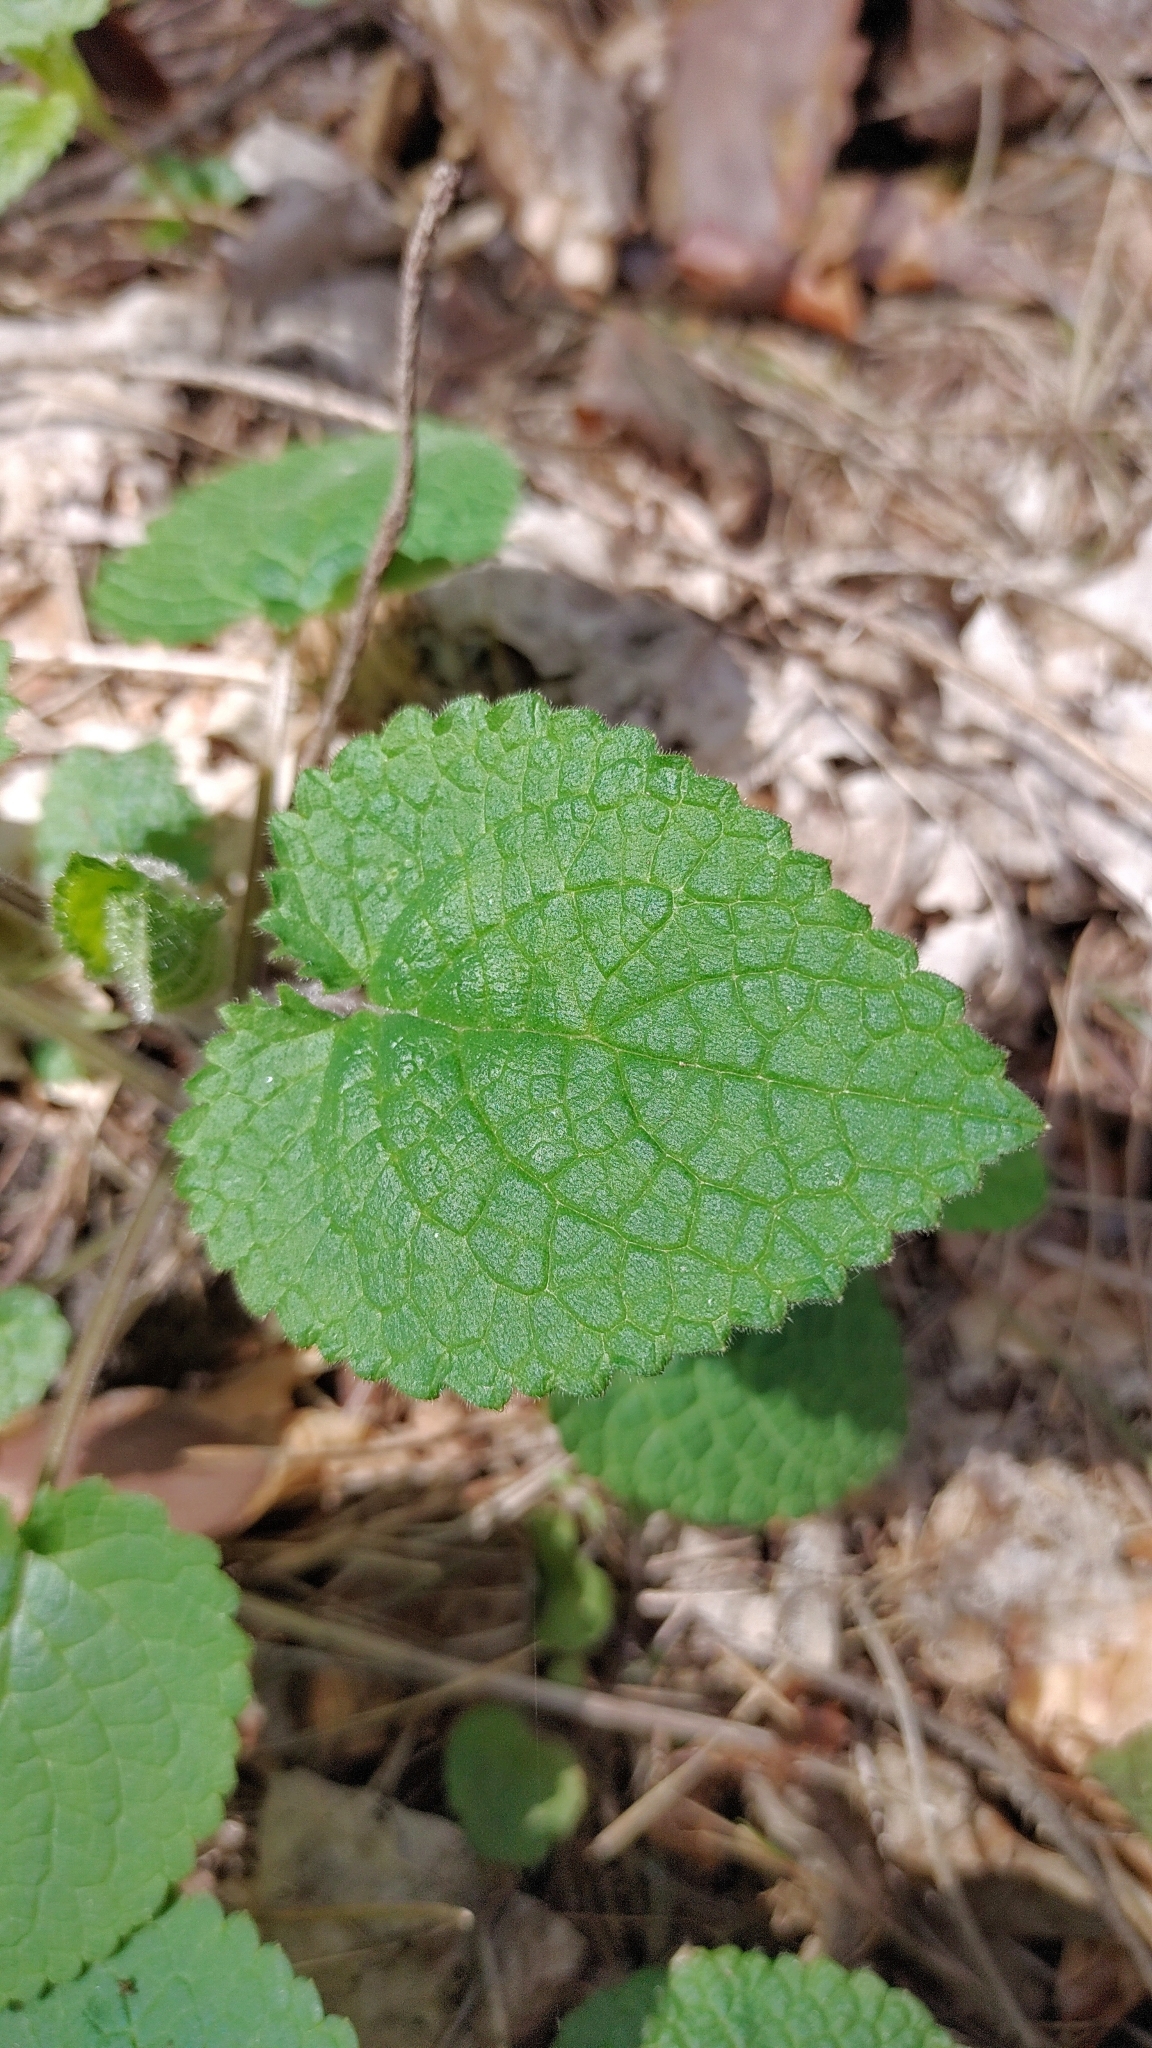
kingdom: Plantae
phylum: Tracheophyta
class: Magnoliopsida
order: Lamiales
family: Lamiaceae
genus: Stachys
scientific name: Stachys sylvatica
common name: Hedge woundwort
